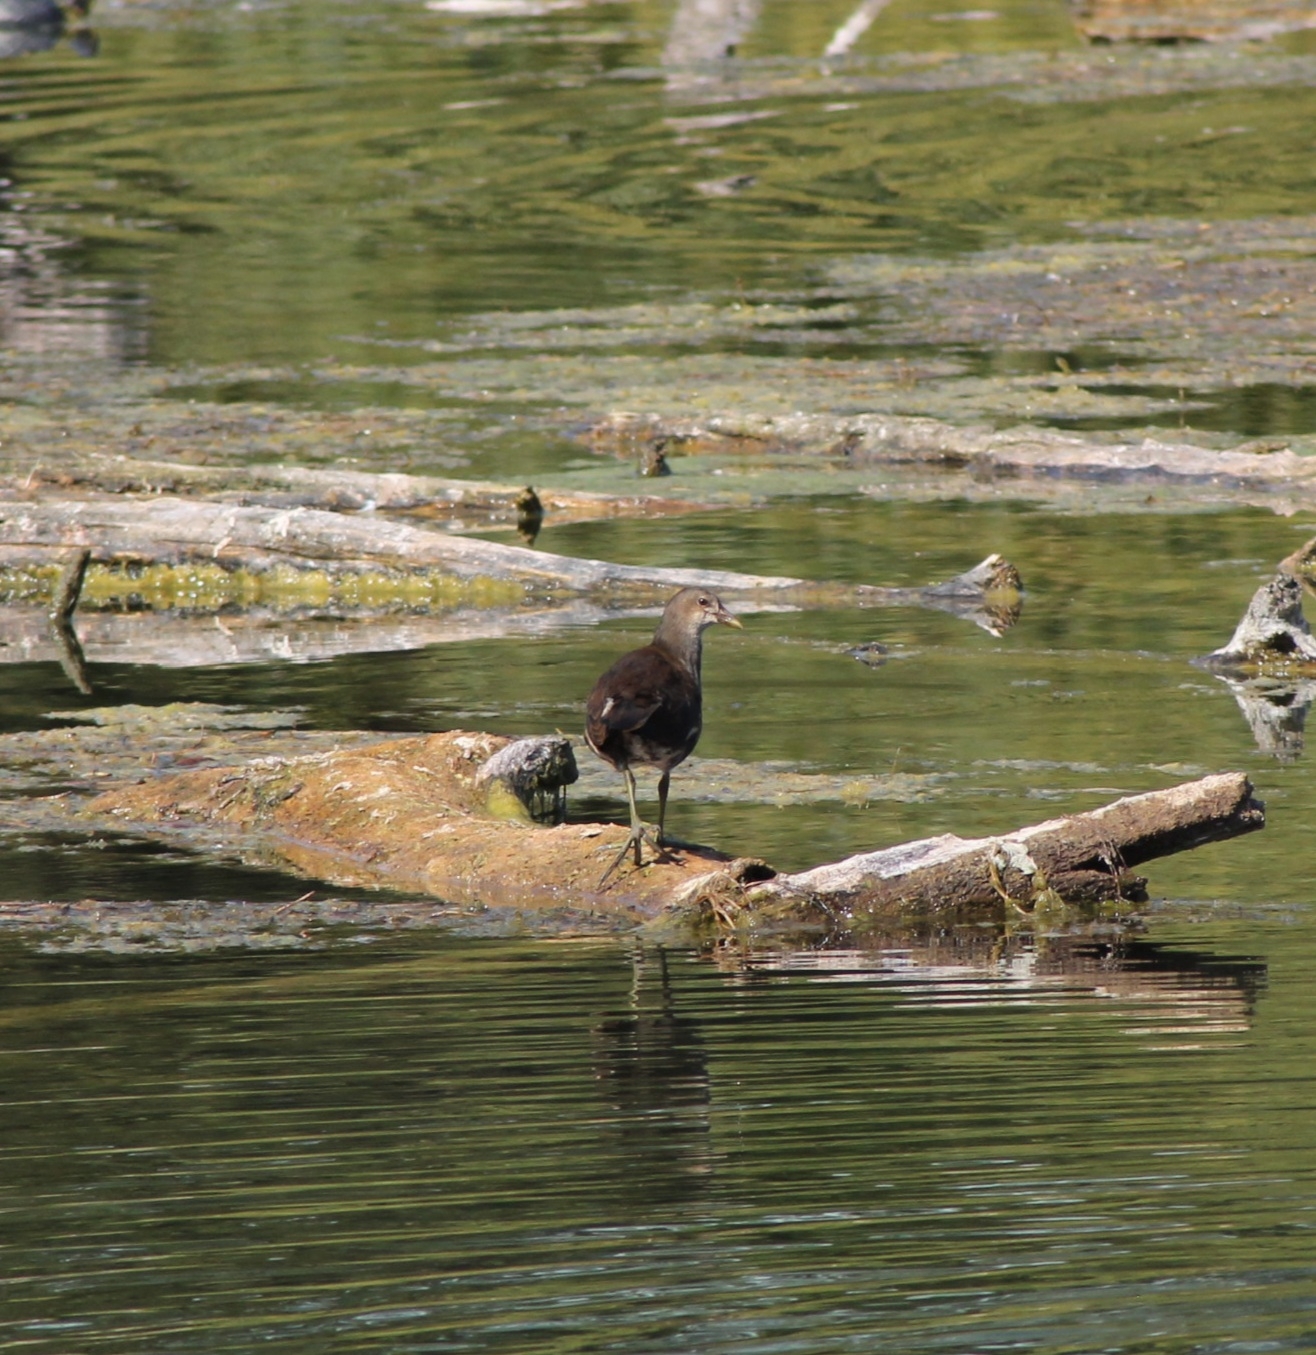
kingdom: Animalia
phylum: Chordata
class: Aves
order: Gruiformes
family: Rallidae
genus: Gallinula
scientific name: Gallinula chloropus
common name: Common moorhen
